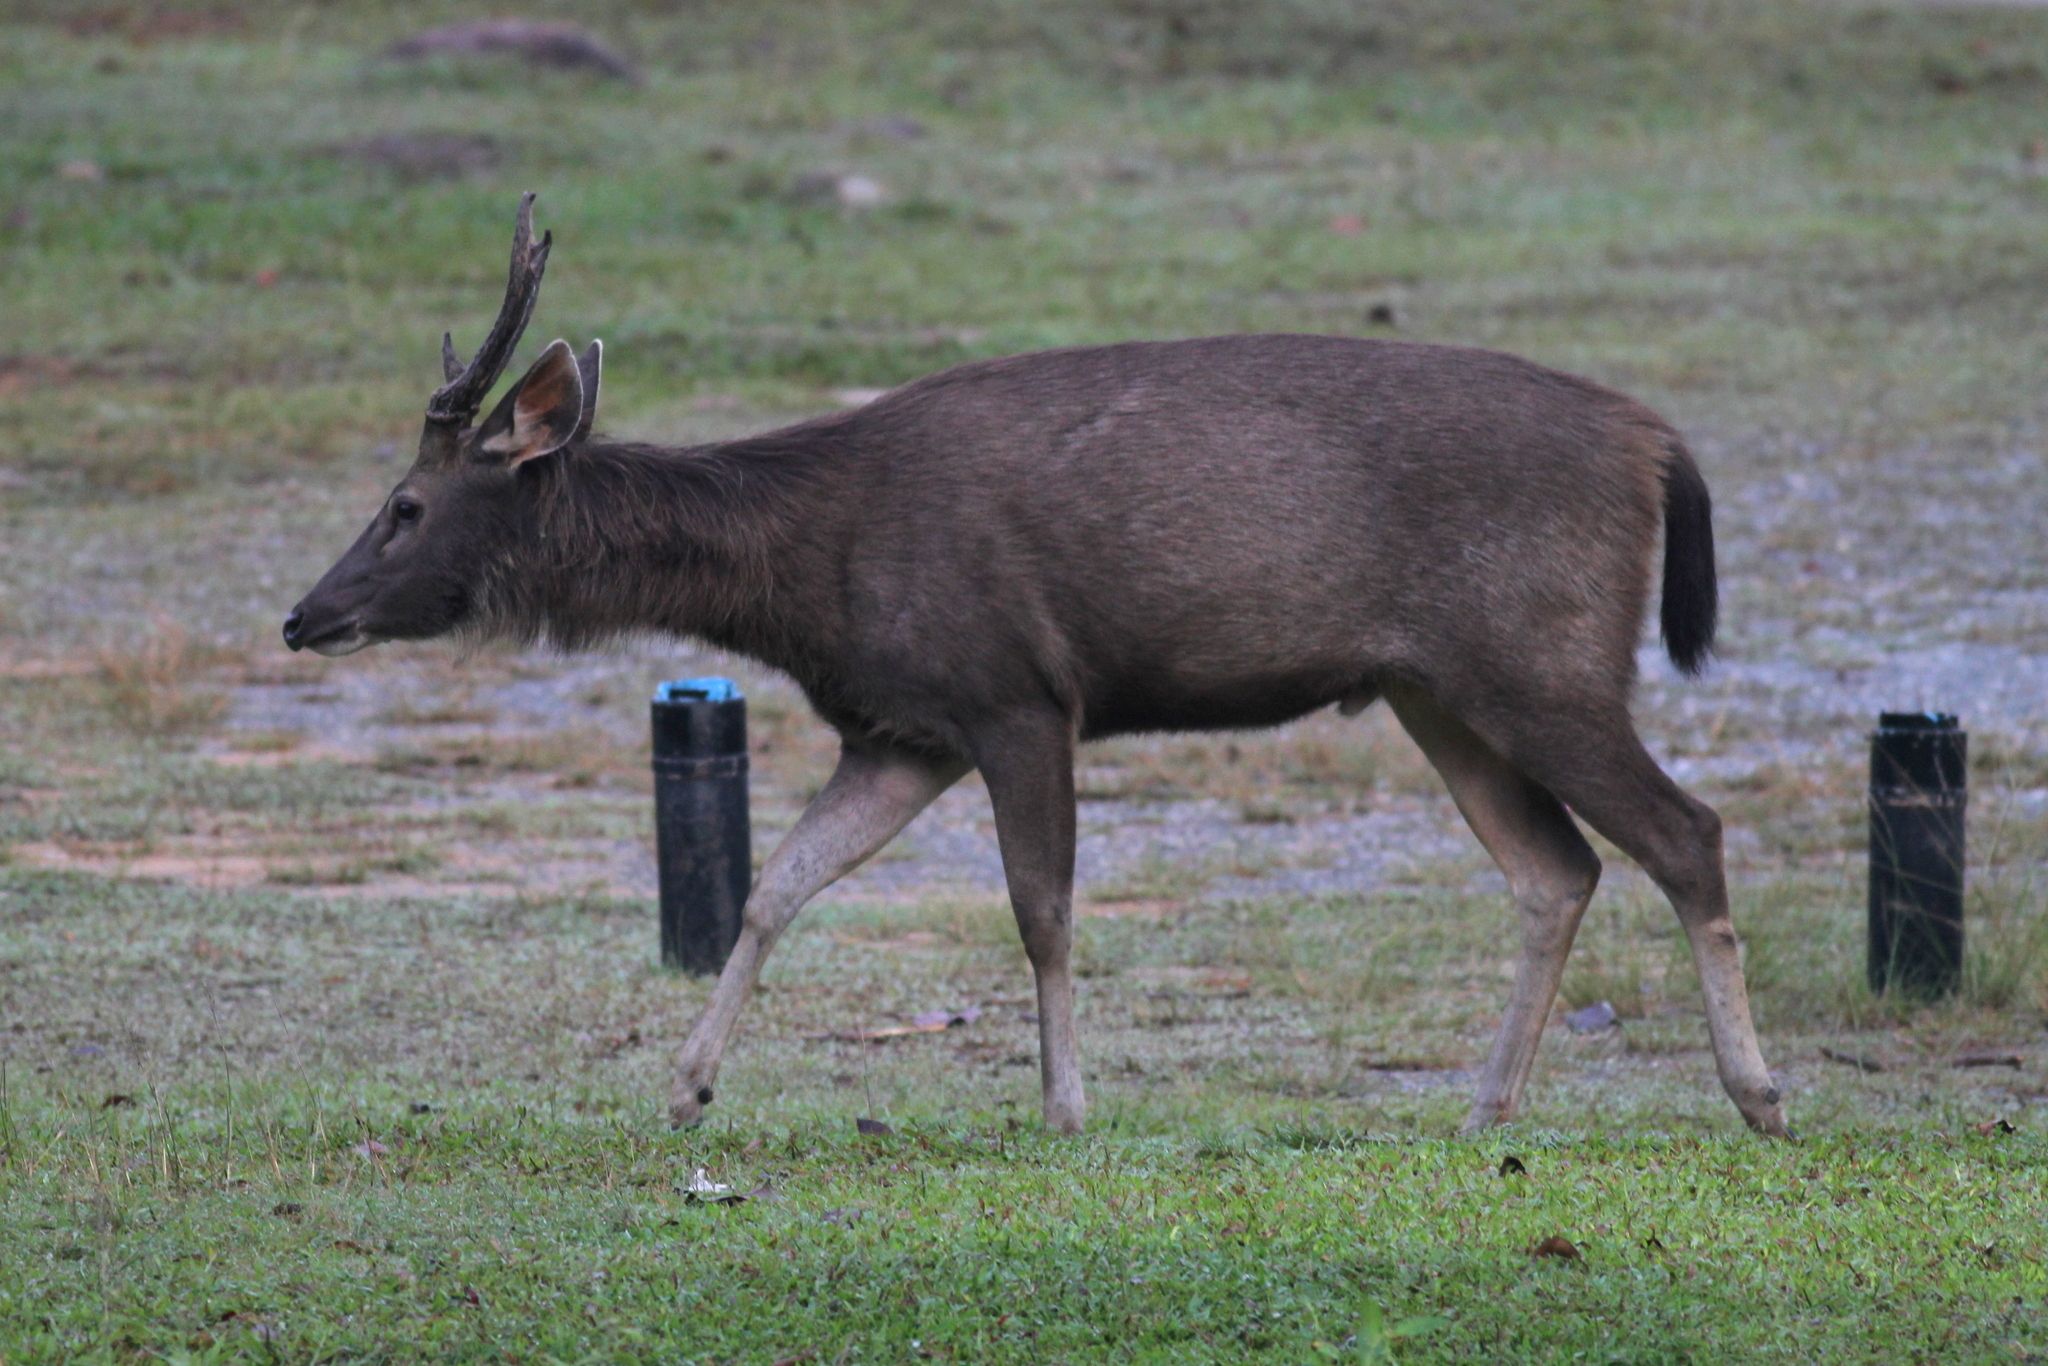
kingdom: Animalia
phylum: Chordata
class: Mammalia
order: Artiodactyla
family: Cervidae
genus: Rusa
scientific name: Rusa unicolor
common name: Sambar
